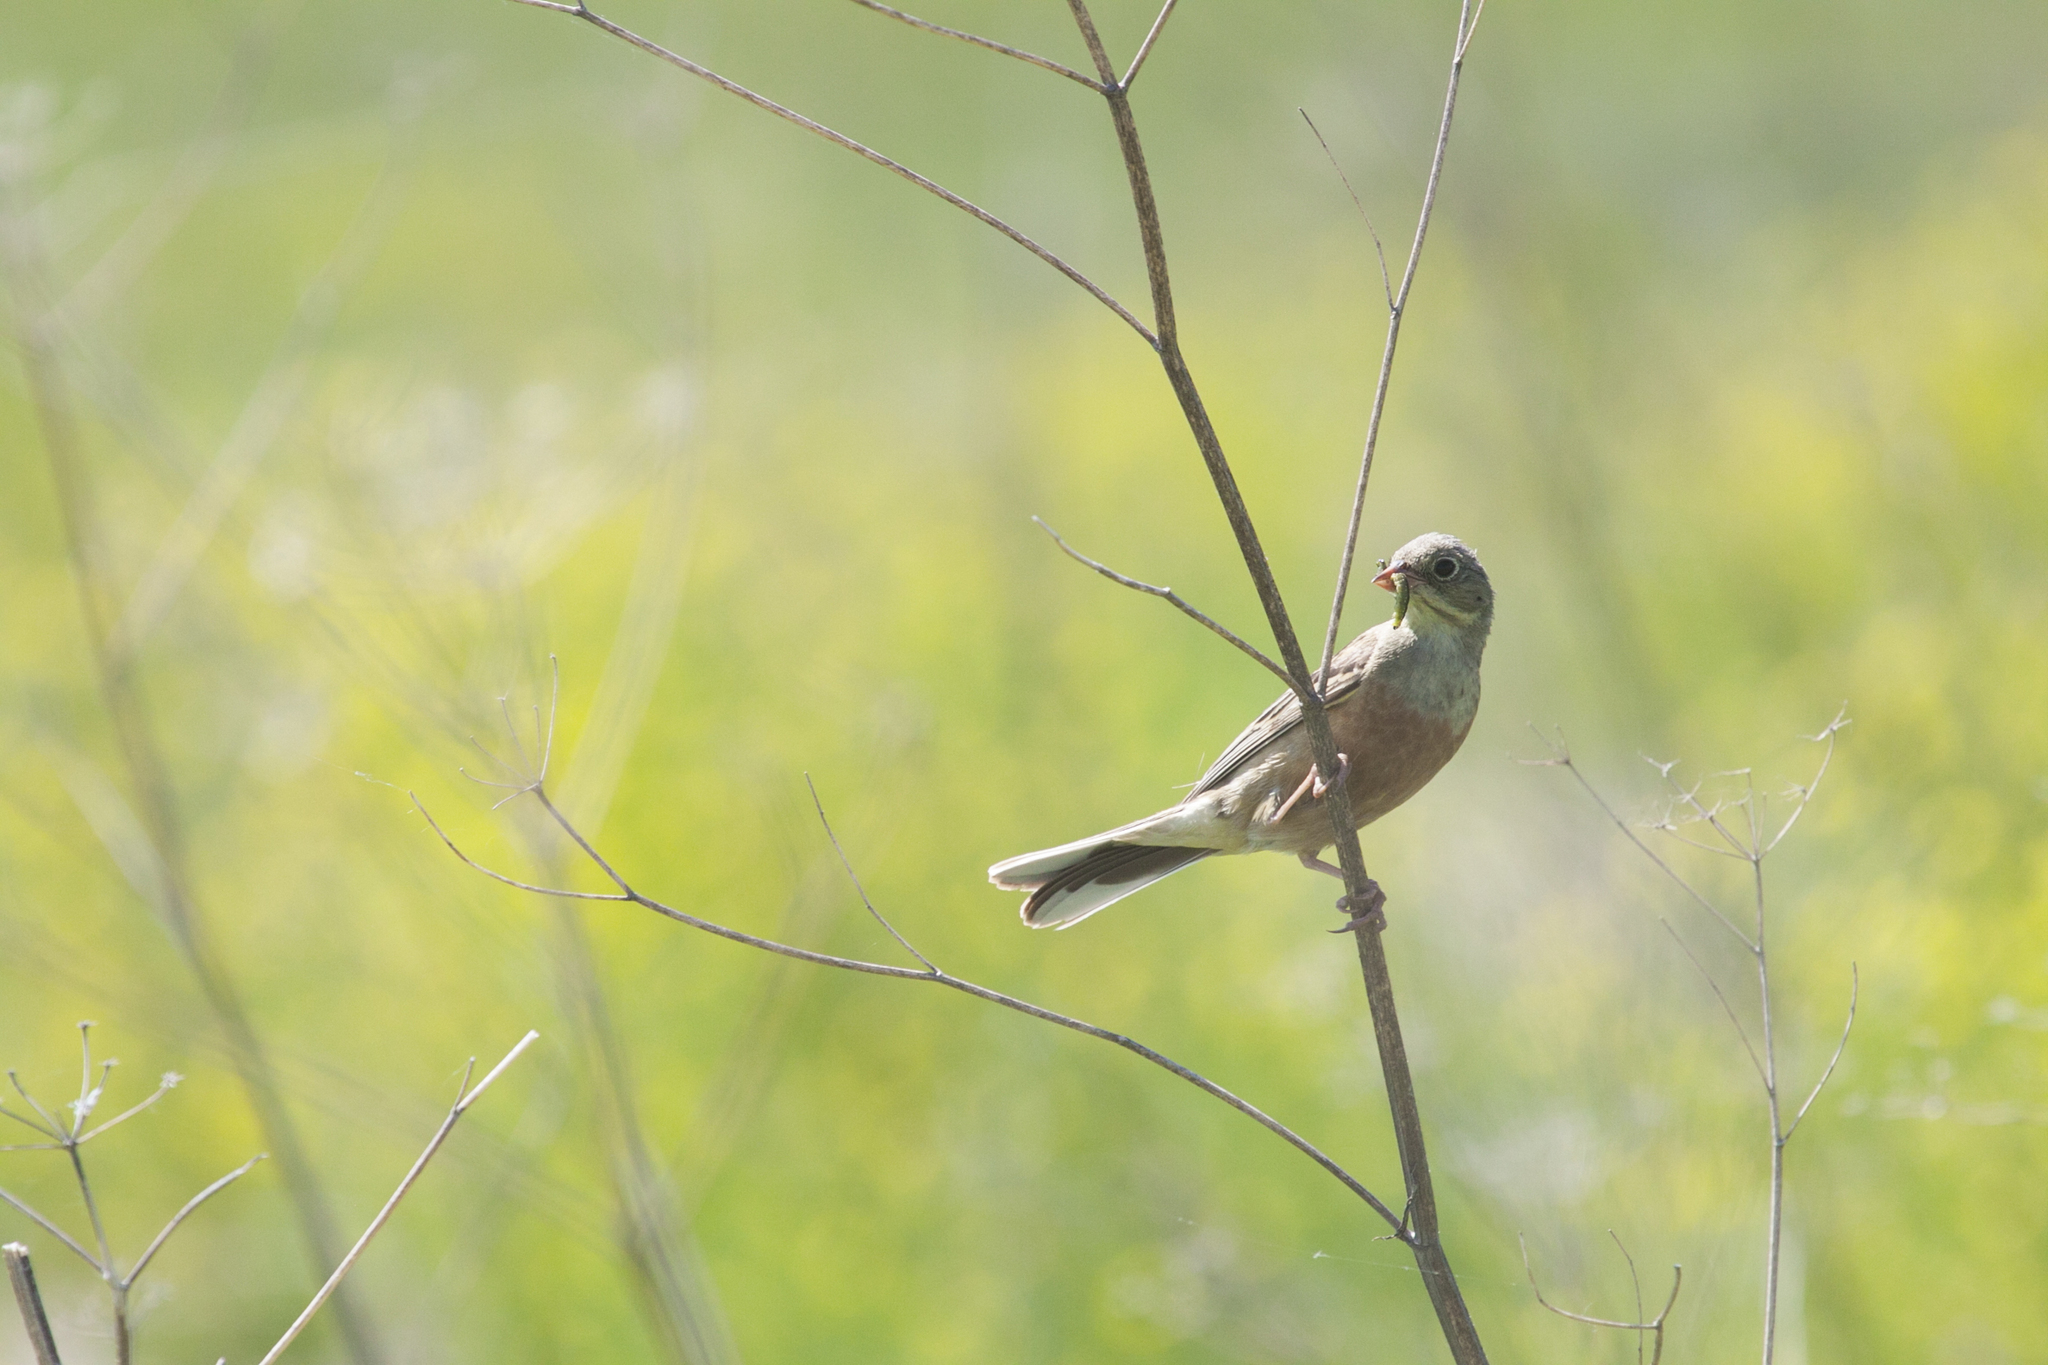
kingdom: Animalia
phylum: Chordata
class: Aves
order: Passeriformes
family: Emberizidae
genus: Emberiza
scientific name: Emberiza hortulana
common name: Ortolan bunting
